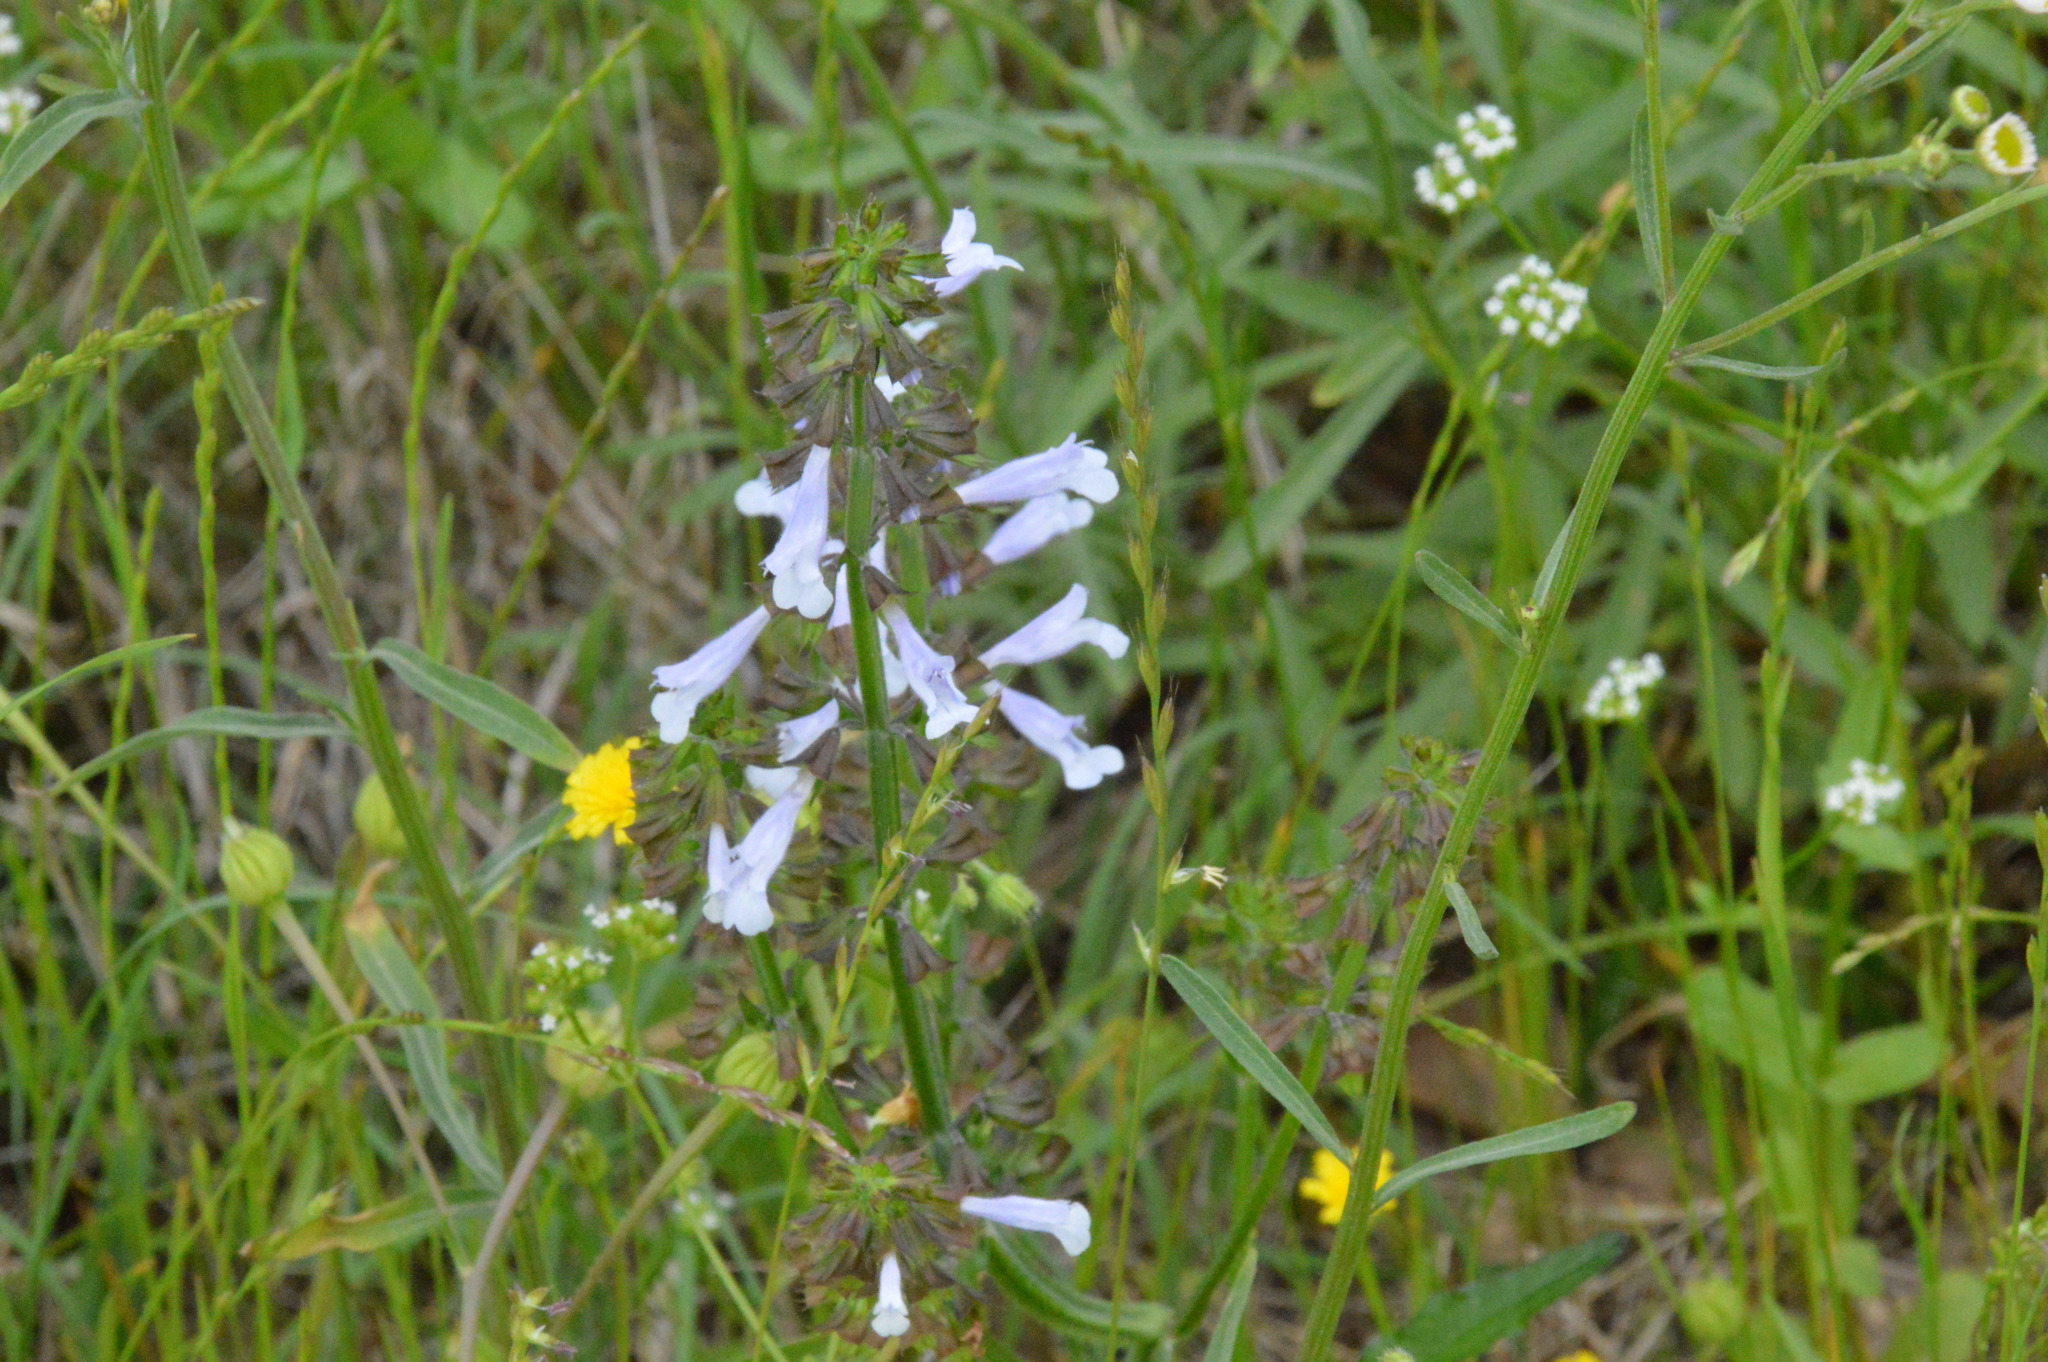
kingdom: Plantae
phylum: Tracheophyta
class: Magnoliopsida
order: Lamiales
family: Lamiaceae
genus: Salvia
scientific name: Salvia lyrata
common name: Cancerweed
